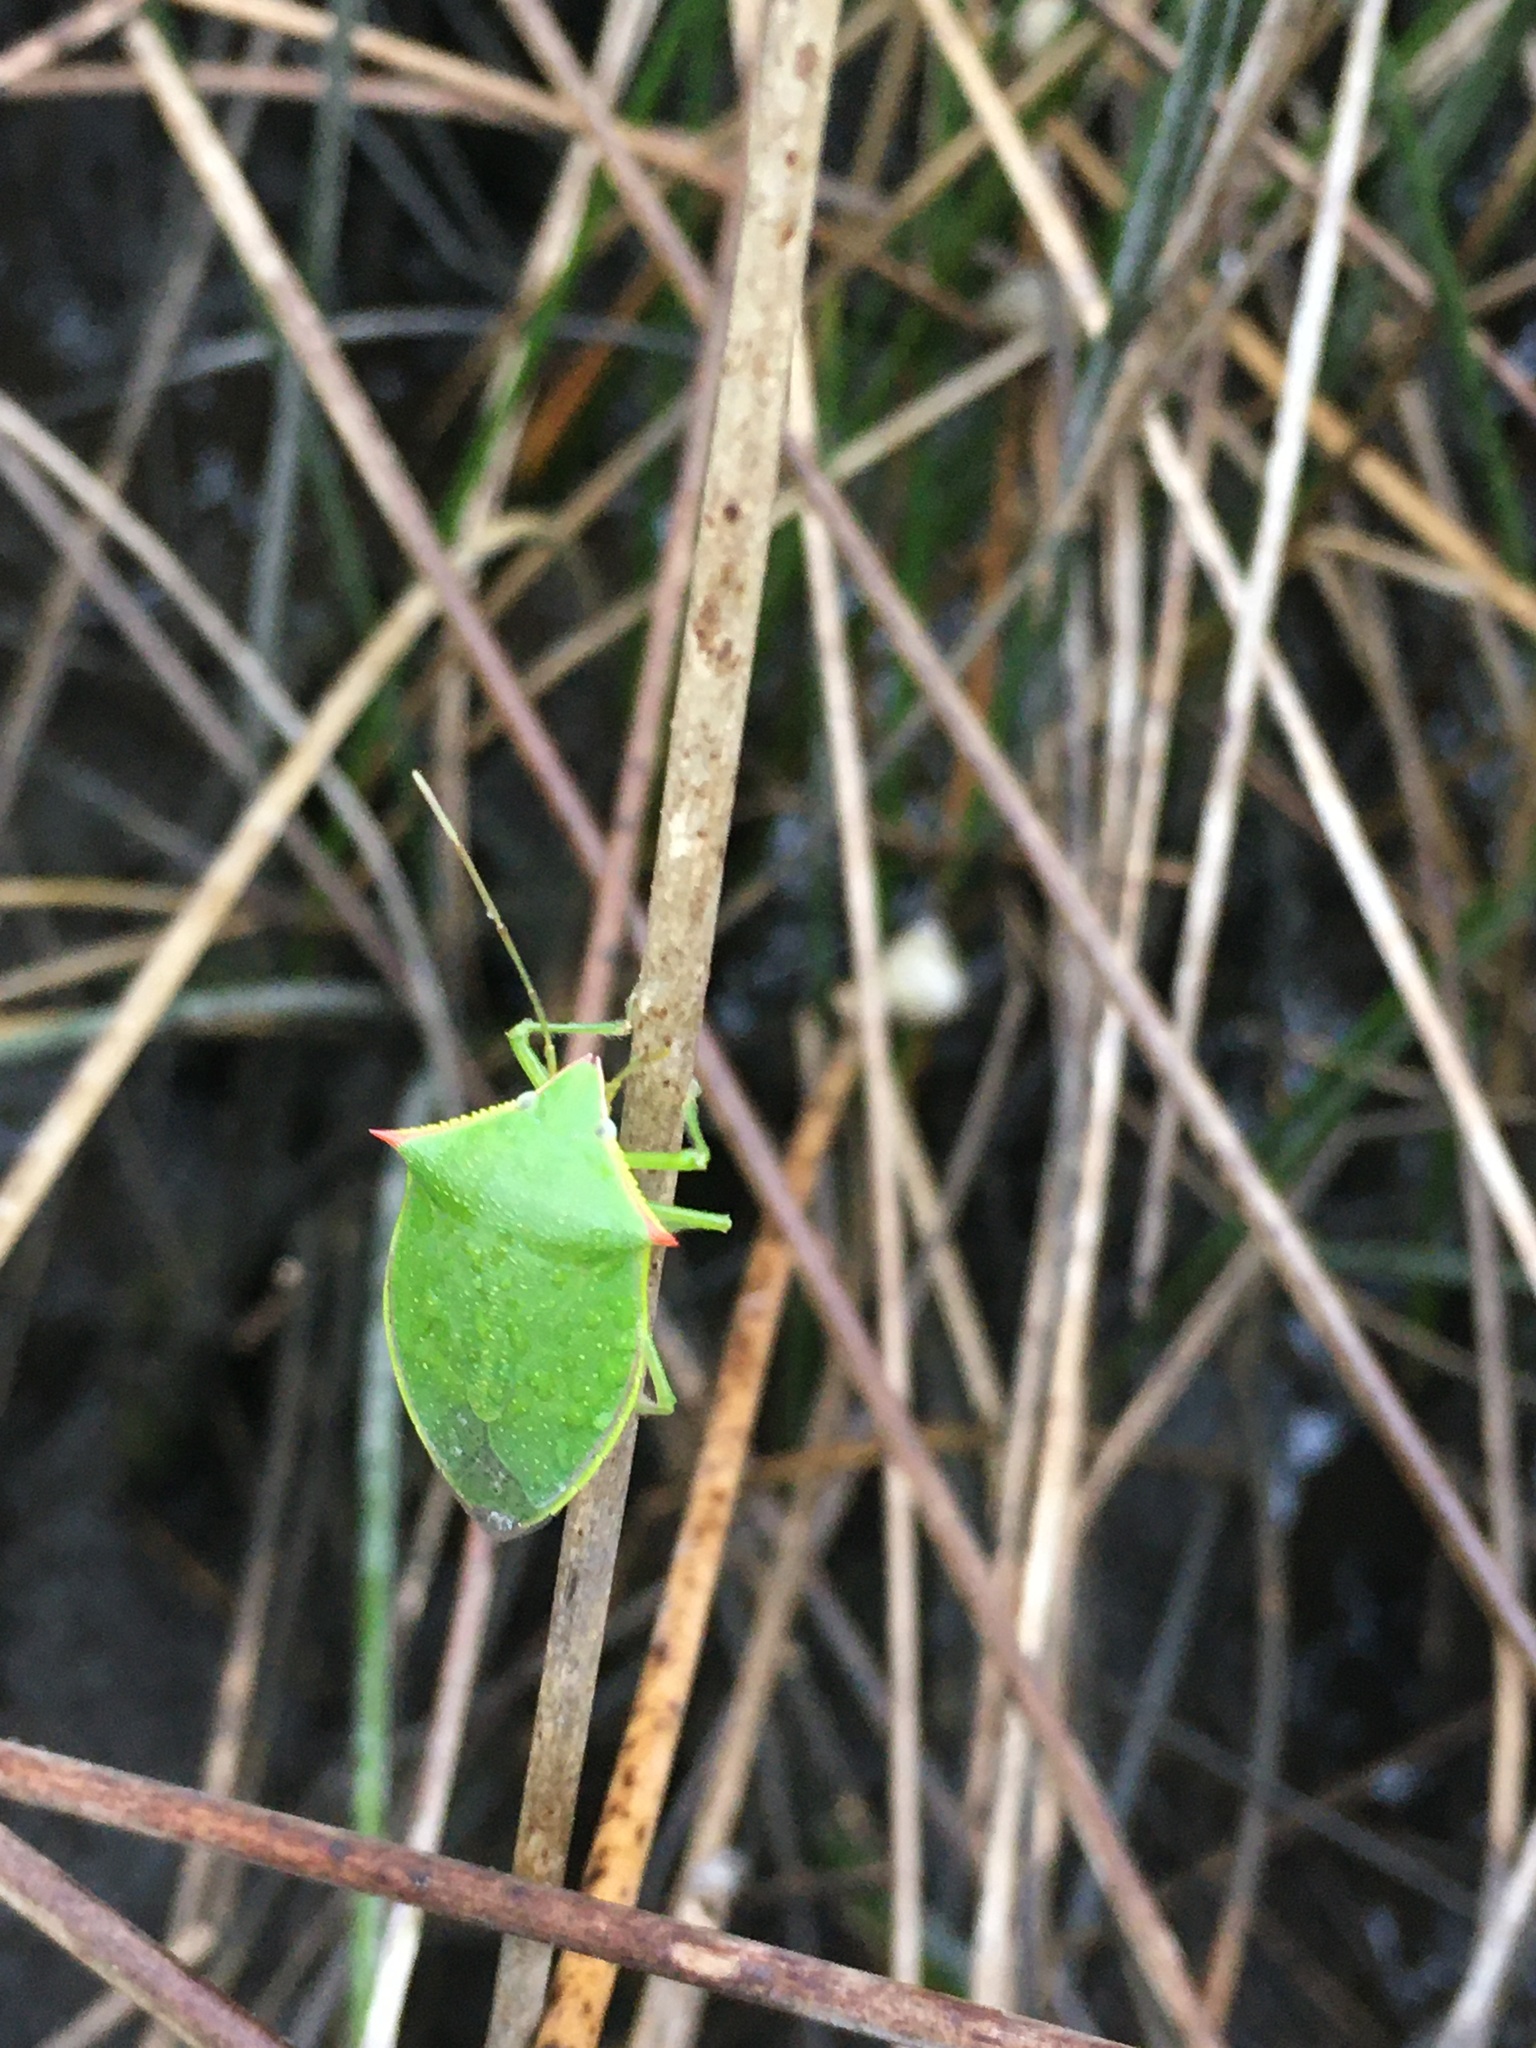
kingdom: Animalia
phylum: Arthropoda
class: Insecta
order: Hemiptera
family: Pentatomidae
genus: Loxa
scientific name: Loxa flavicollis
